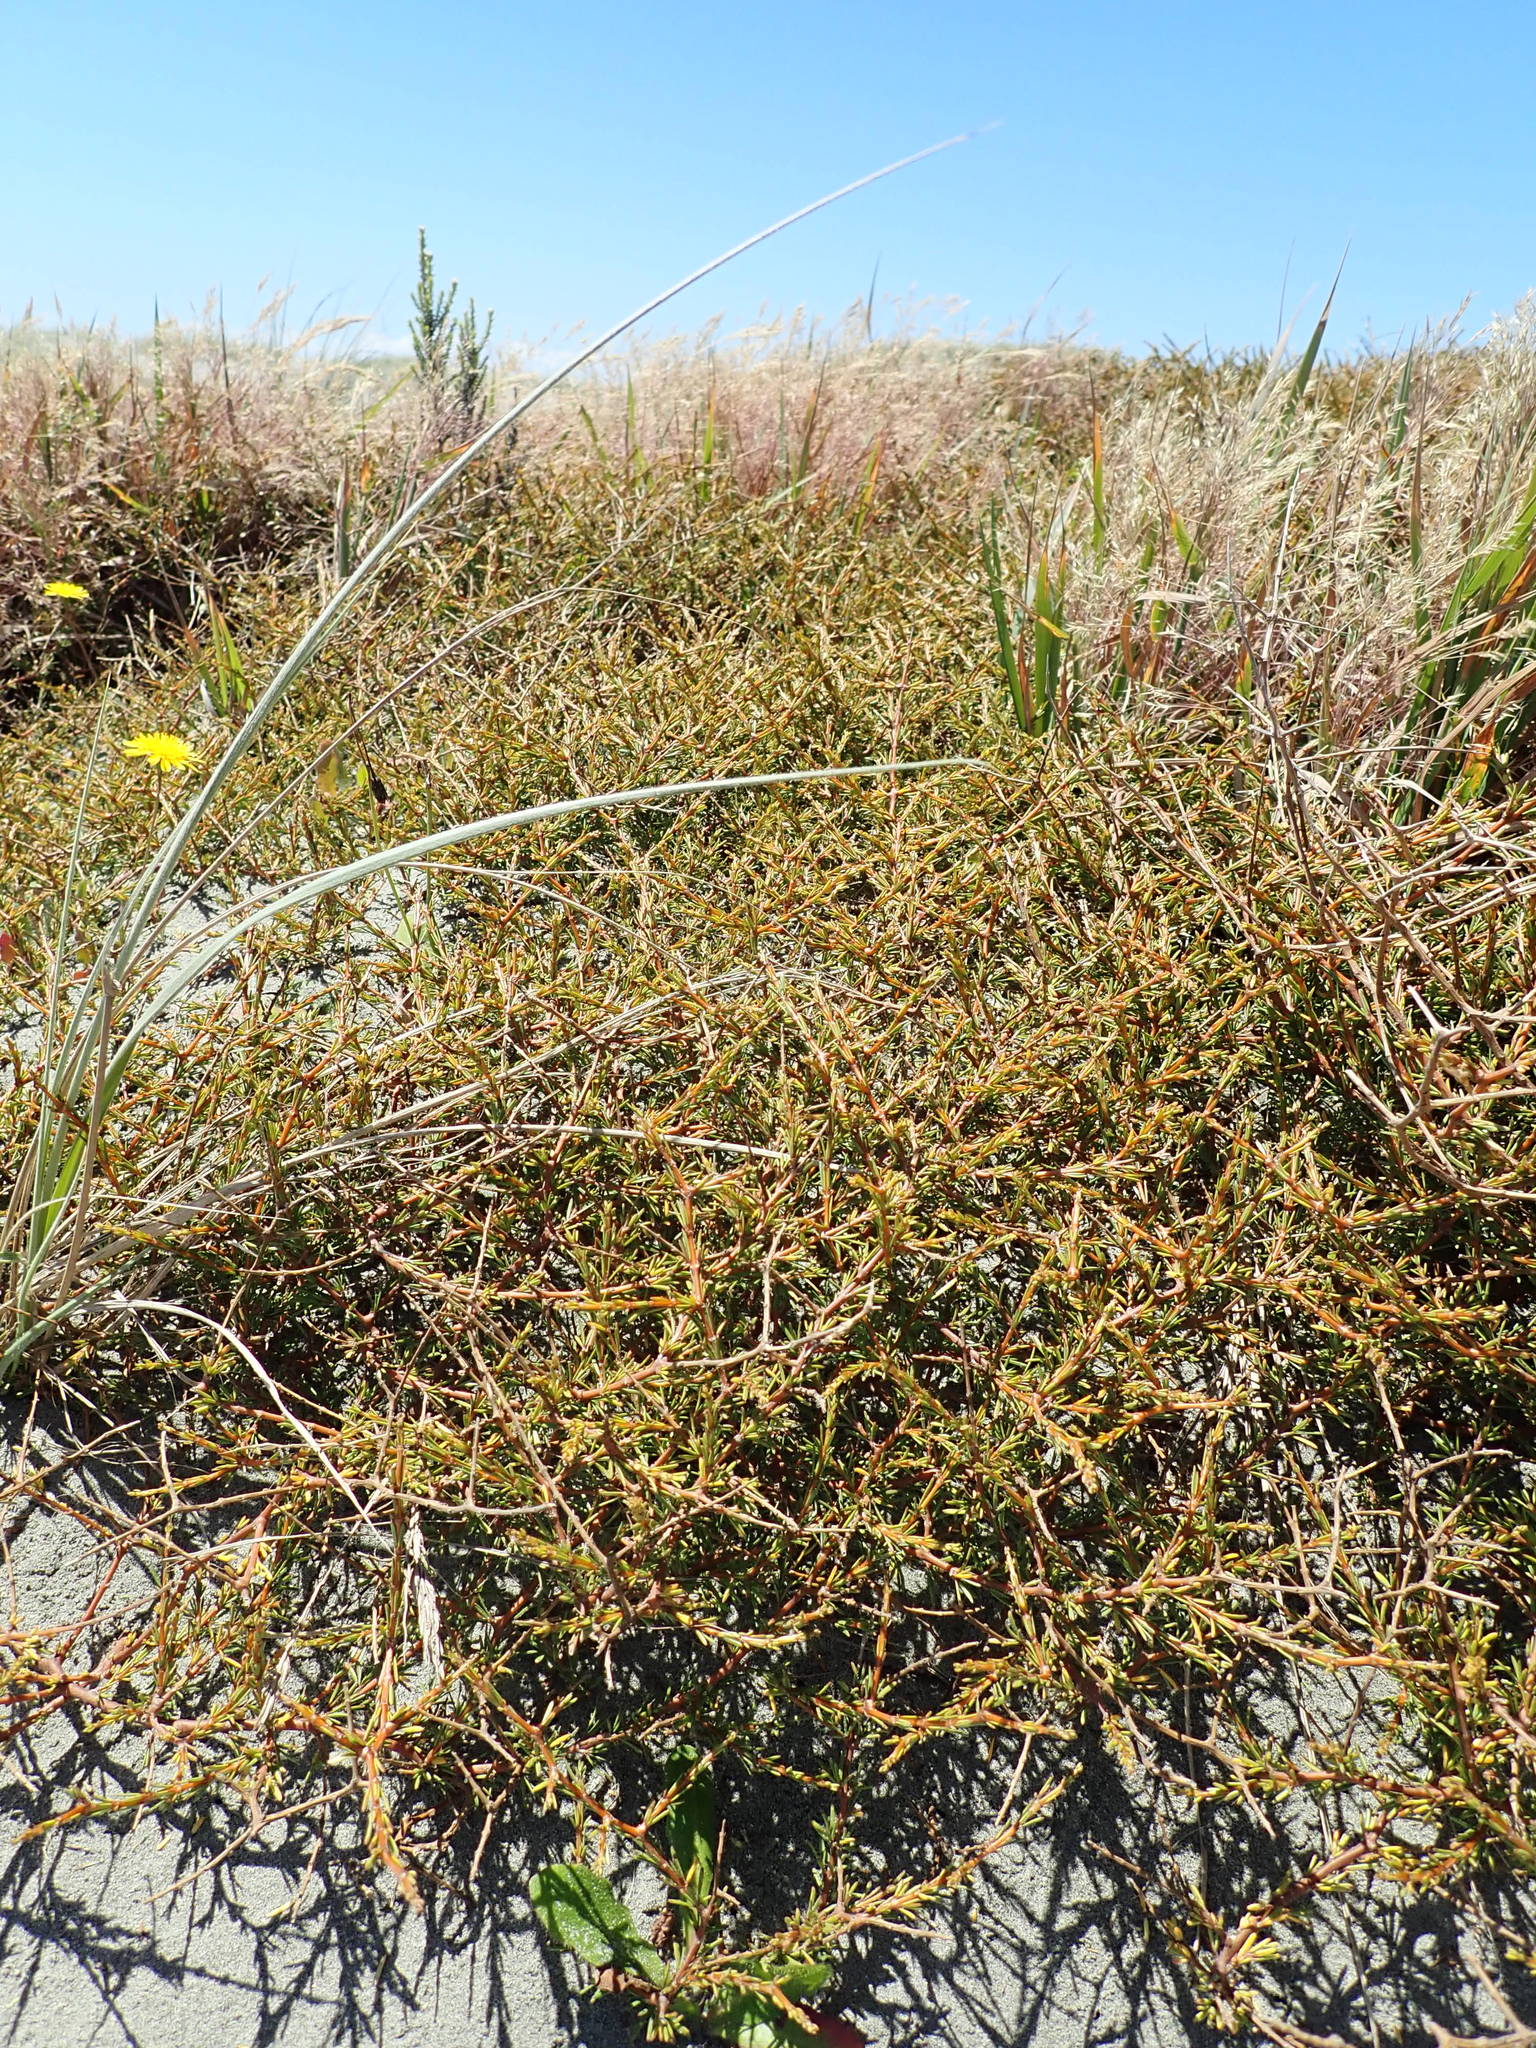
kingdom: Plantae
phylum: Tracheophyta
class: Magnoliopsida
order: Gentianales
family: Rubiaceae
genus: Coprosma
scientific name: Coprosma acerosa
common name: Sand coprosma
